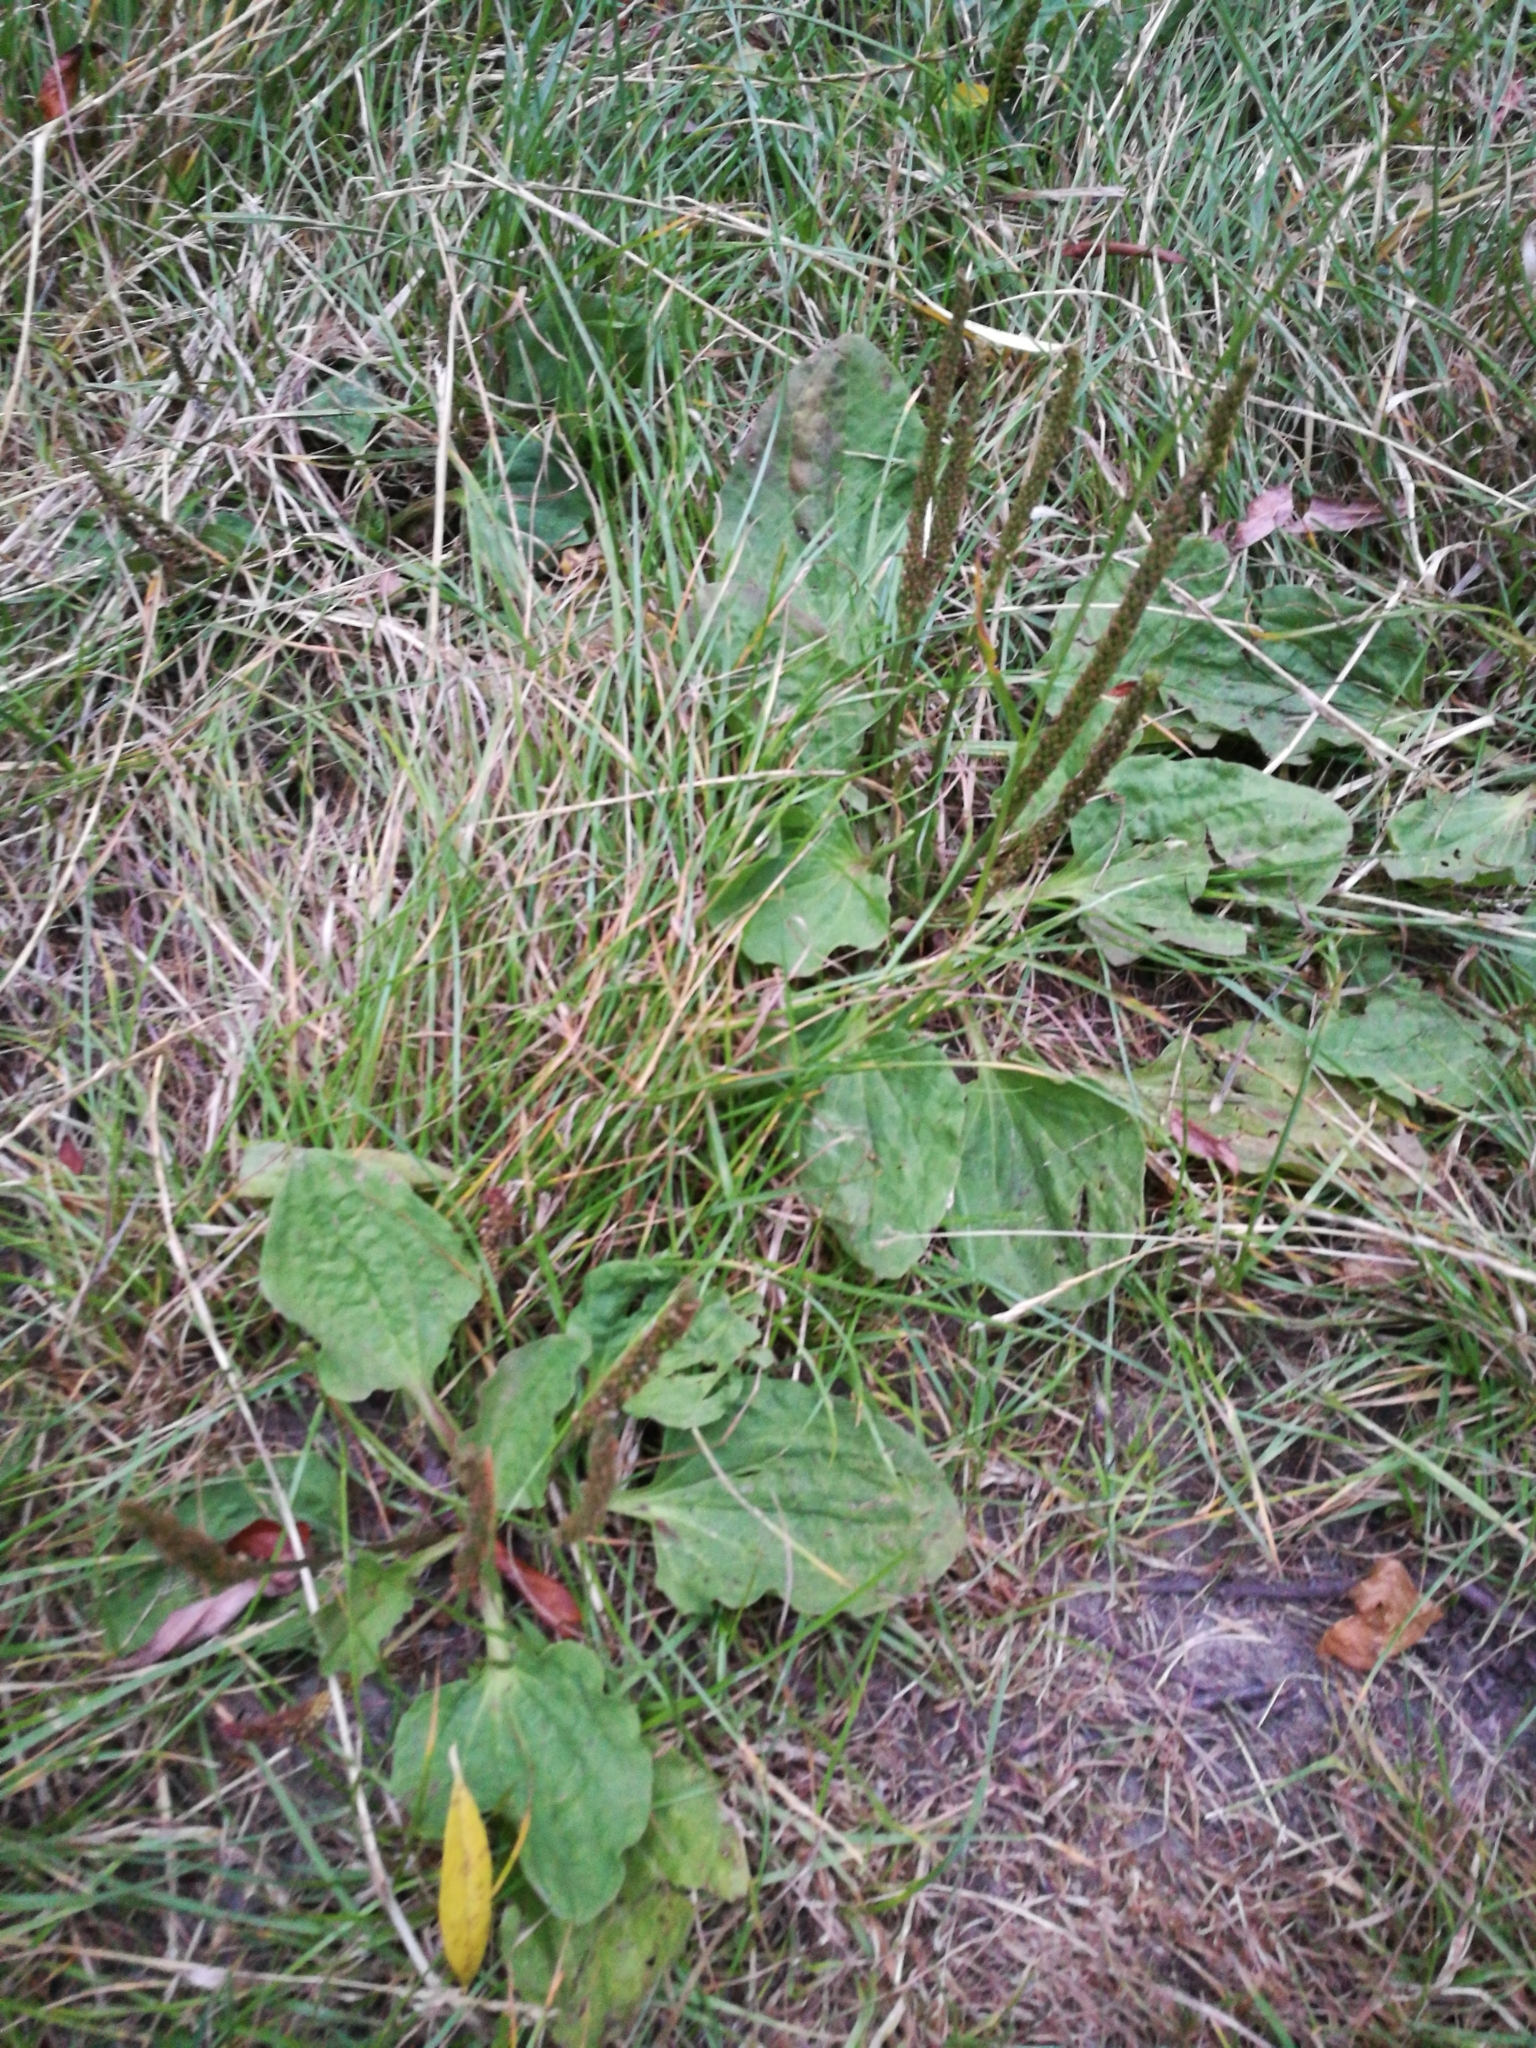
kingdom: Plantae
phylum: Tracheophyta
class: Magnoliopsida
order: Lamiales
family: Plantaginaceae
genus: Plantago
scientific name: Plantago major
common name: Common plantain
